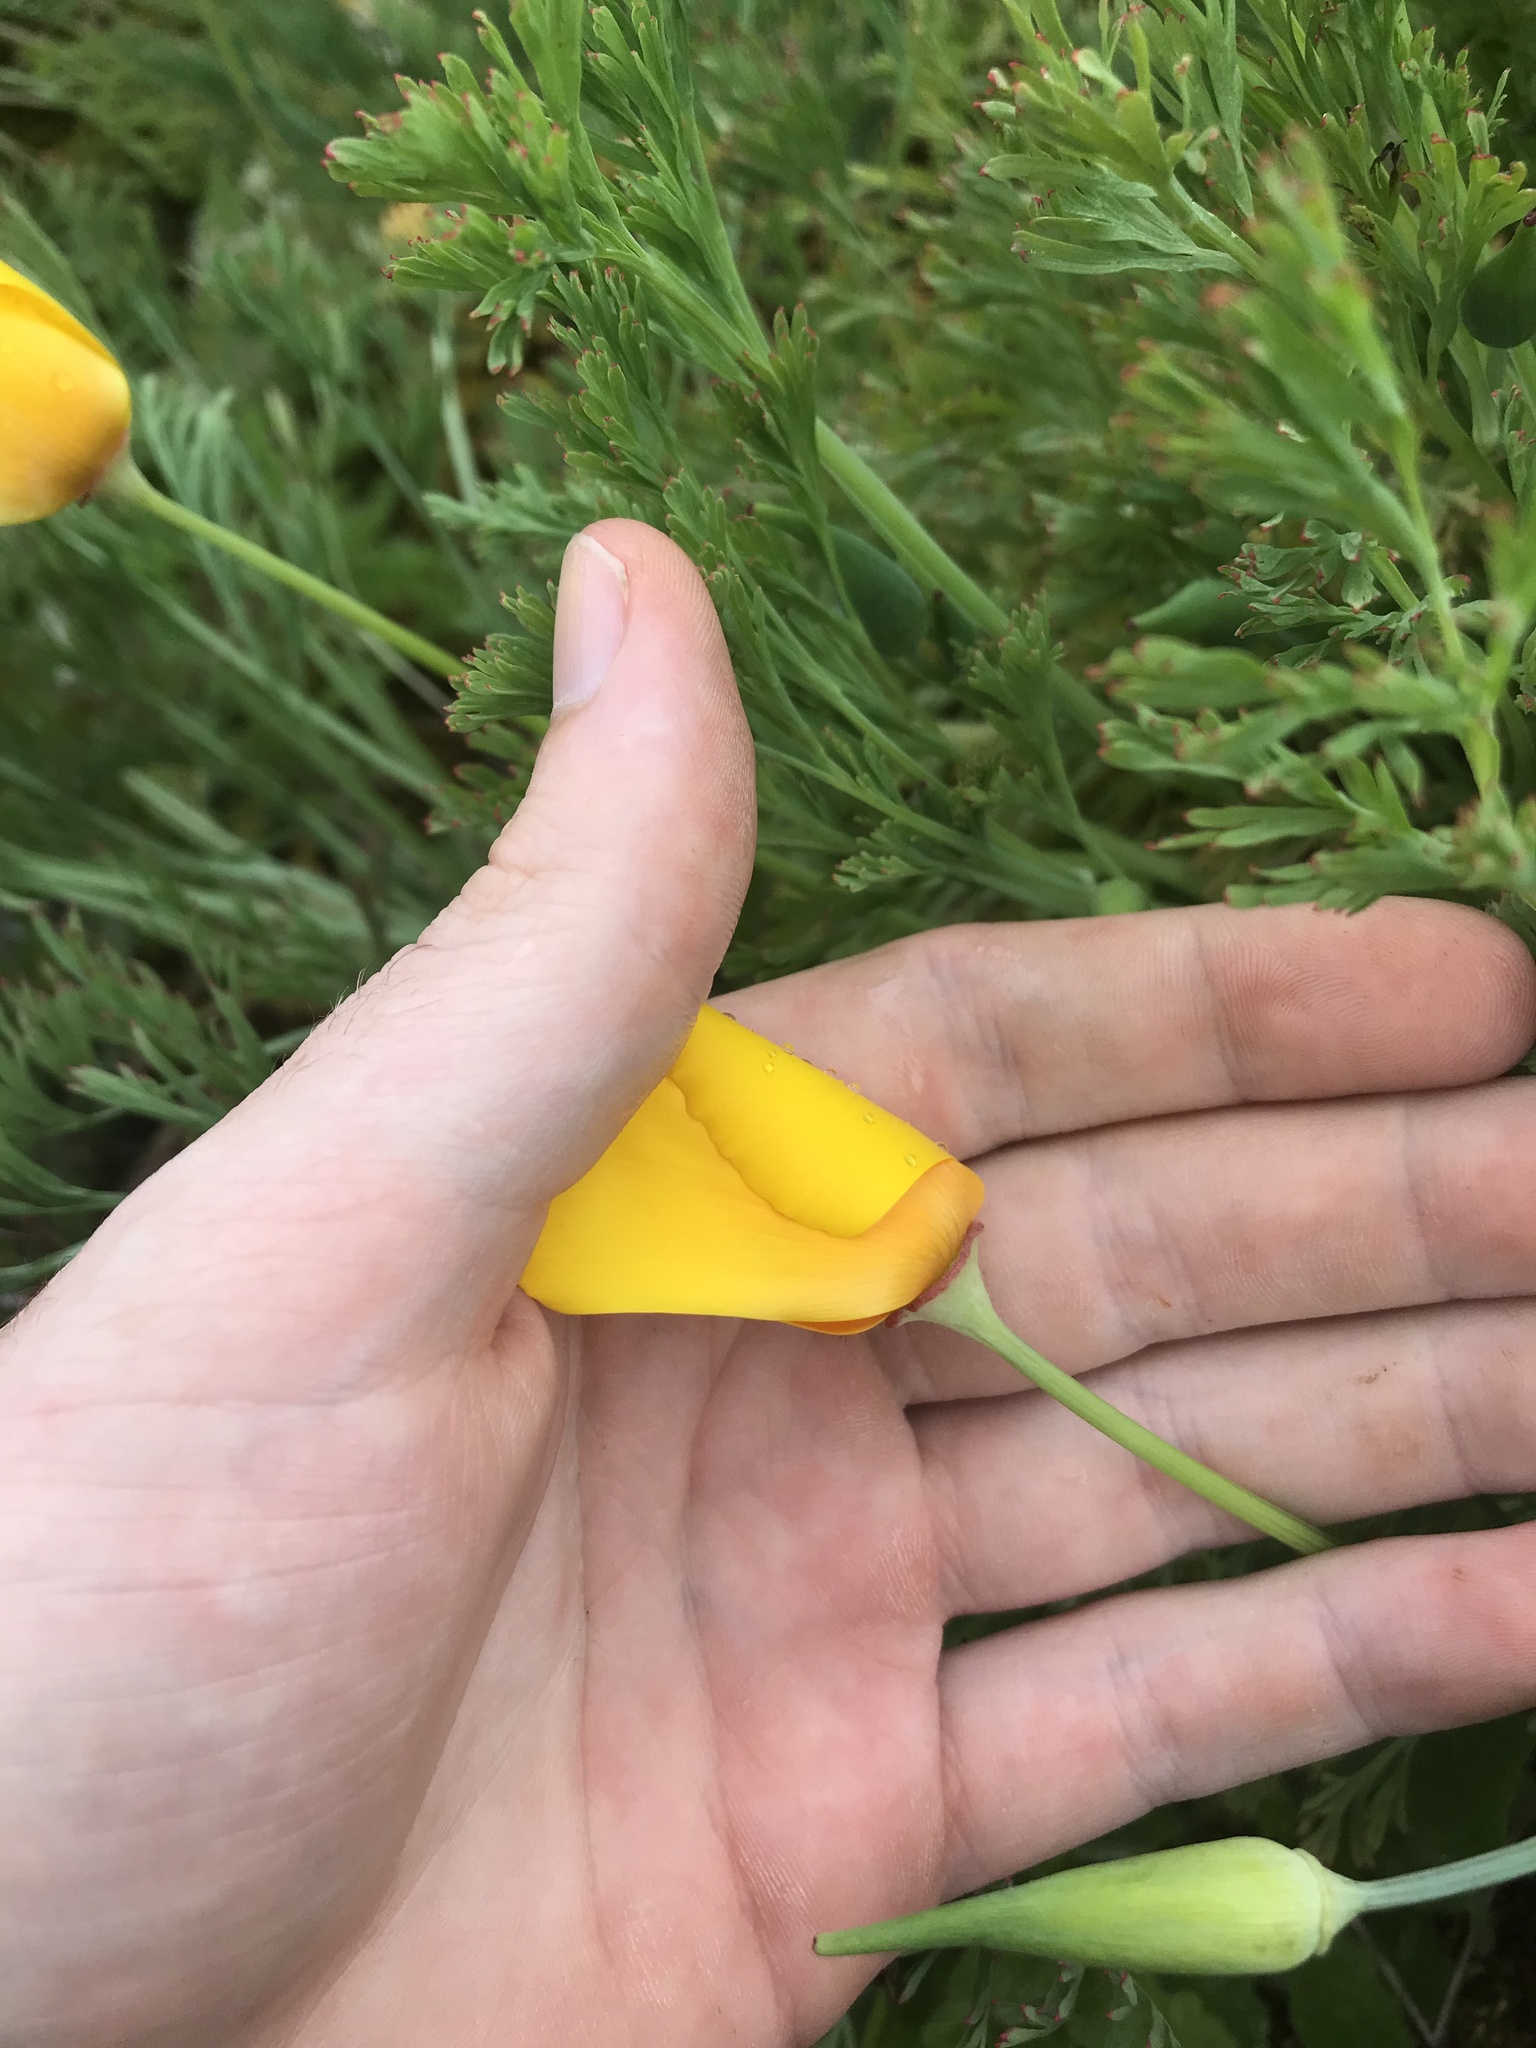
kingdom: Plantae
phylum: Tracheophyta
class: Magnoliopsida
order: Ranunculales
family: Papaveraceae
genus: Eschscholzia
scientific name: Eschscholzia californica
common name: California poppy
